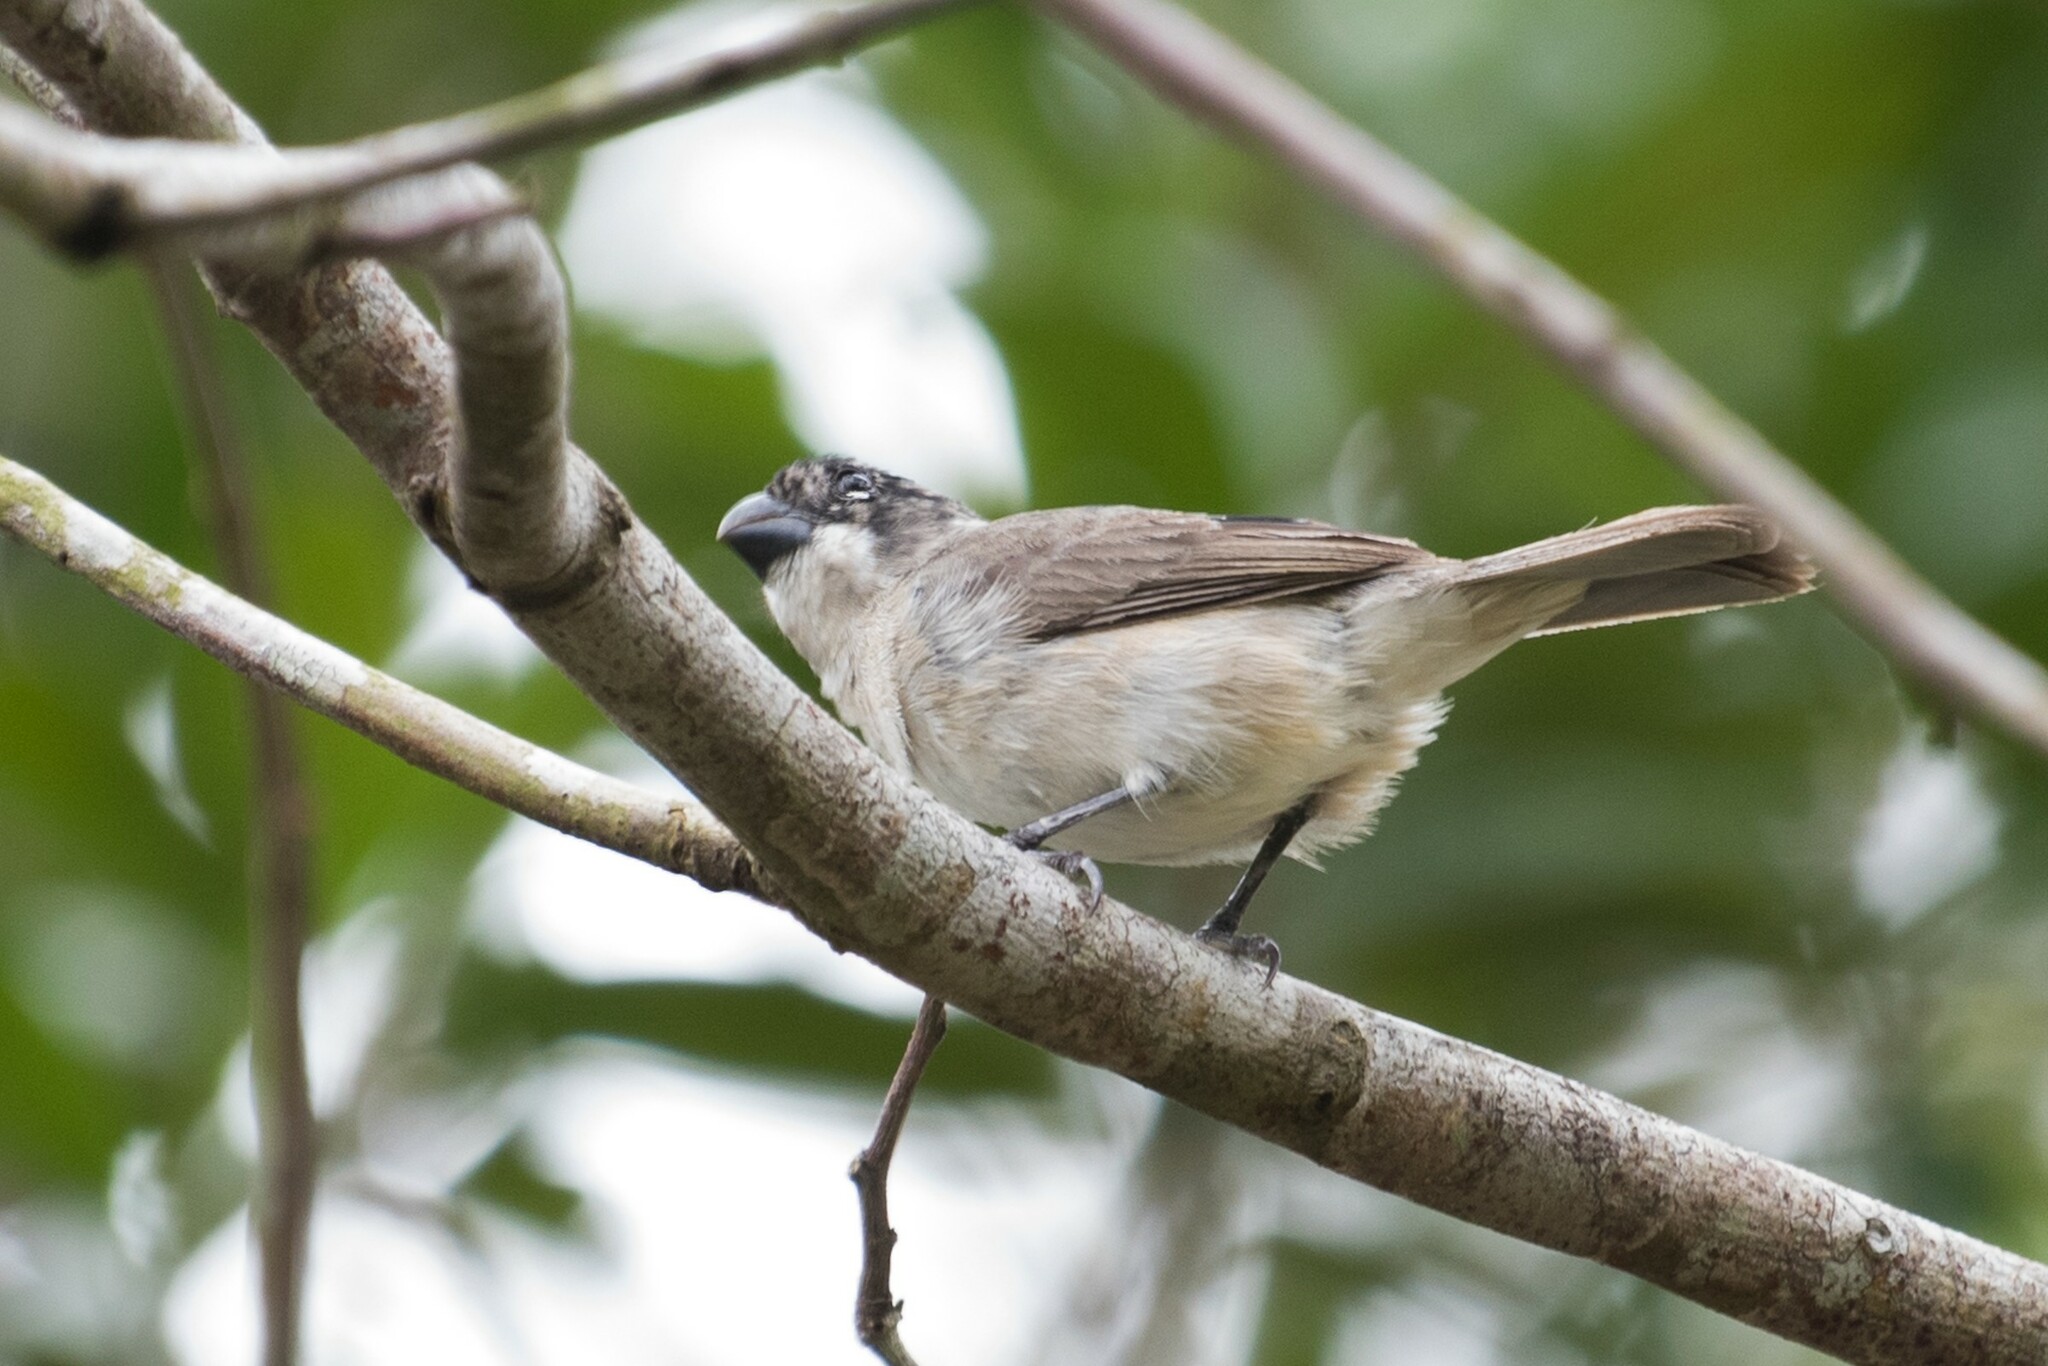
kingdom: Animalia
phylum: Chordata
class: Aves
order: Passeriformes
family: Thraupidae
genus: Sporophila
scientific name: Sporophila americana
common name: Wing-barred seedeater
